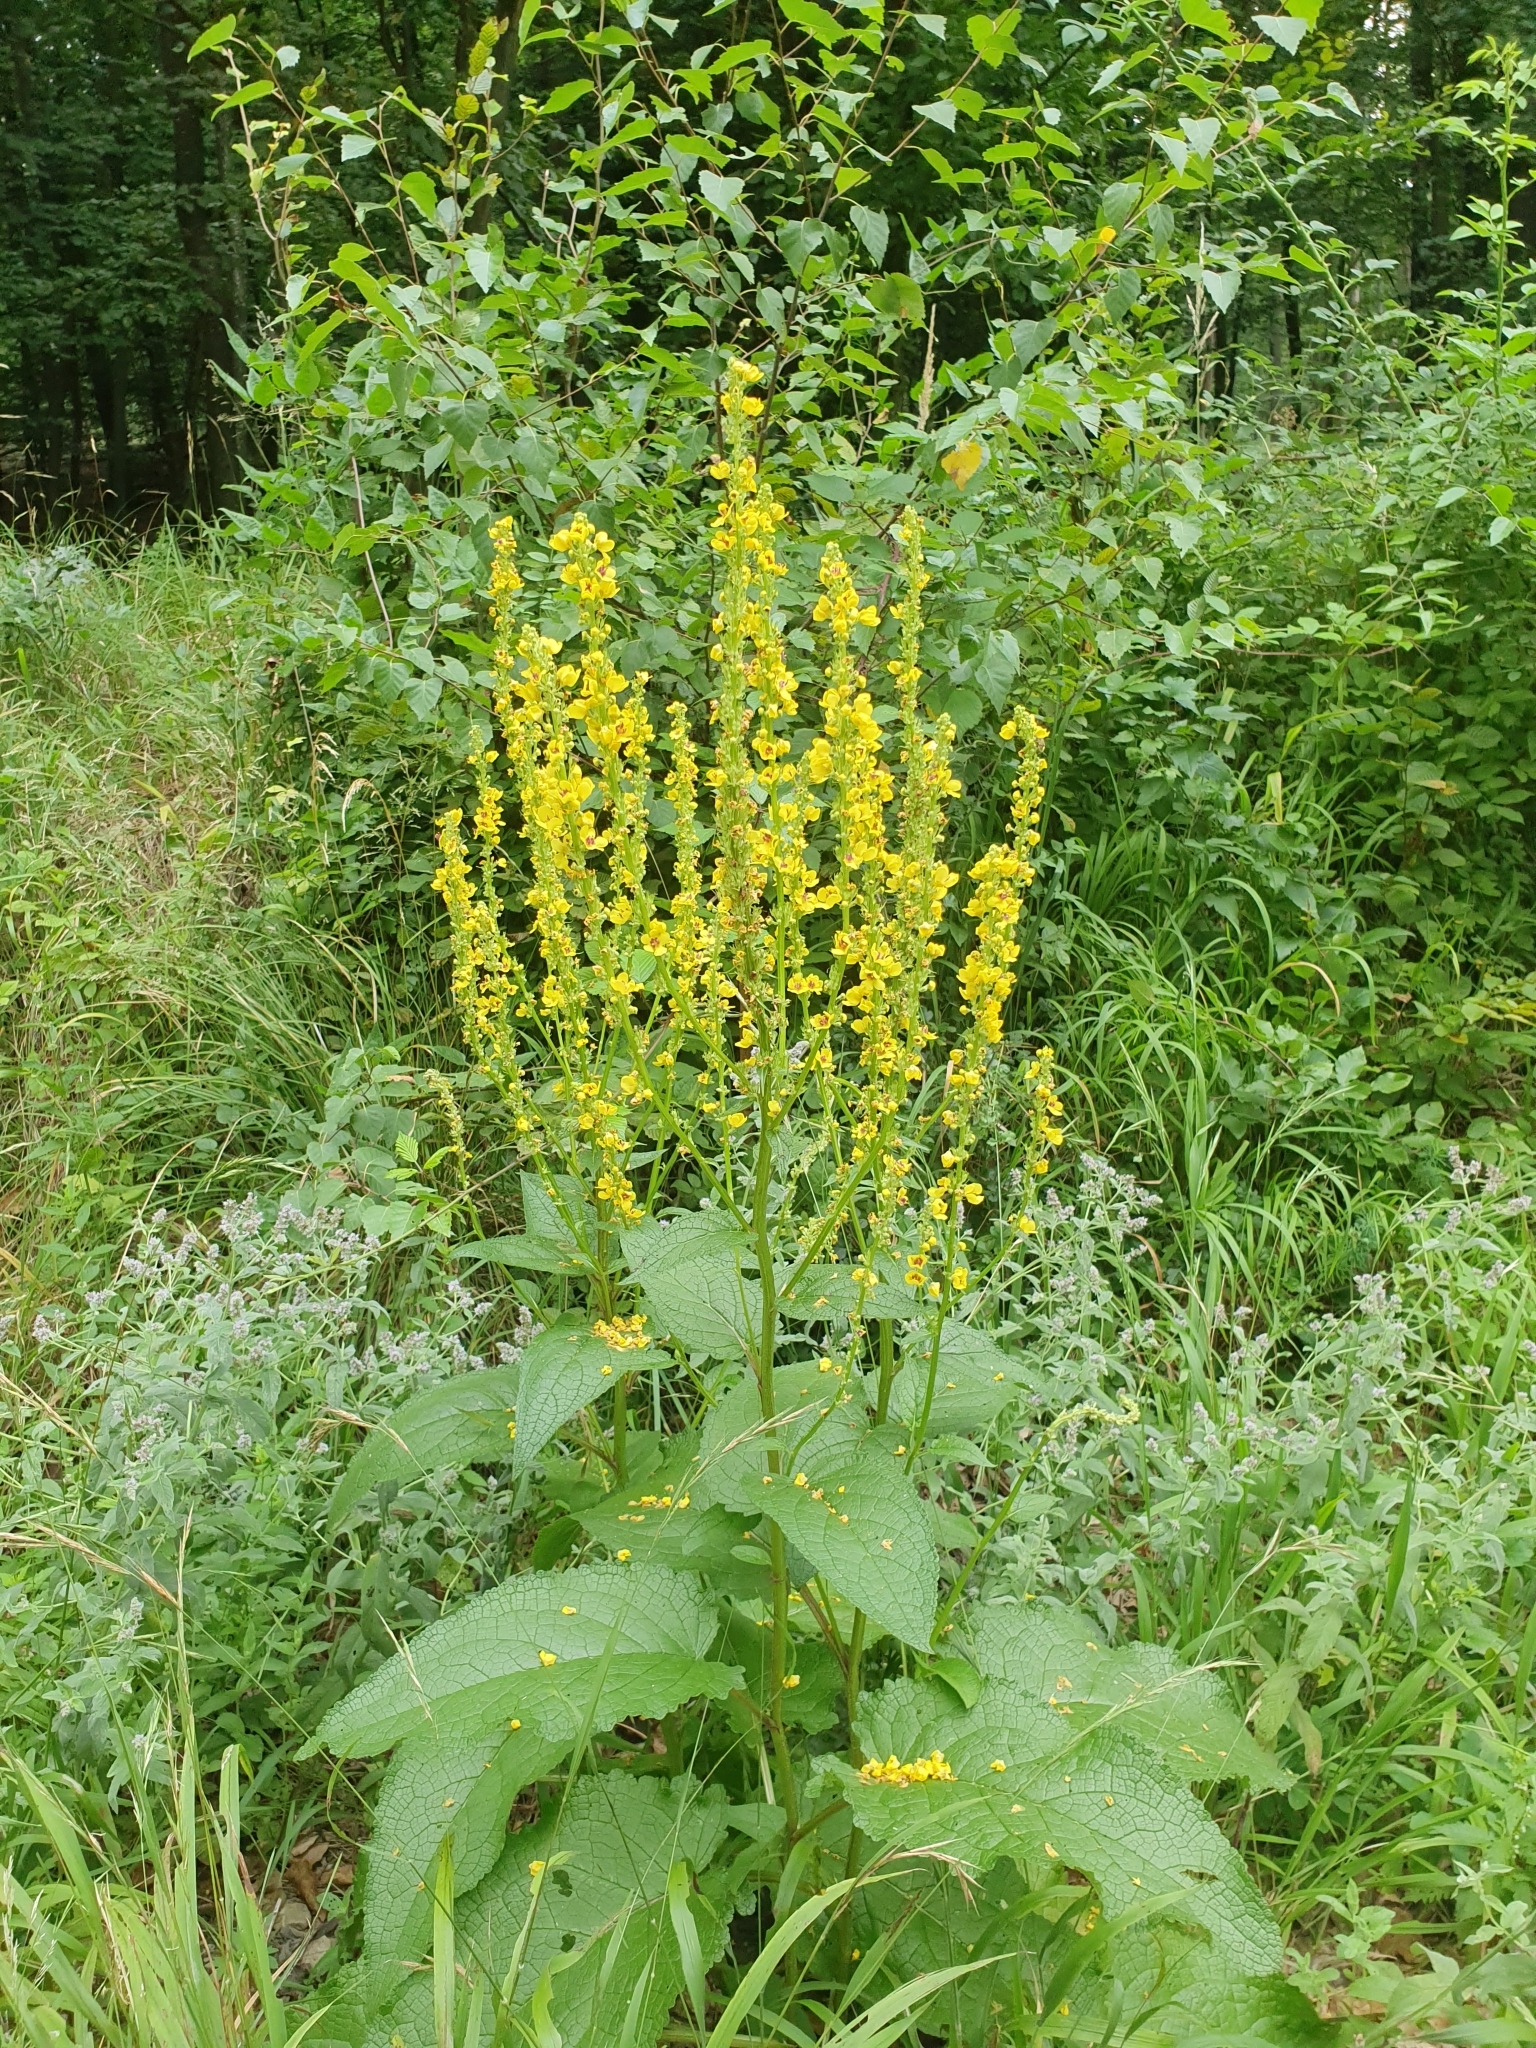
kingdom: Plantae
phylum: Tracheophyta
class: Magnoliopsida
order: Lamiales
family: Scrophulariaceae
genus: Verbascum
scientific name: Verbascum nigrum
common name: Dark mullein
